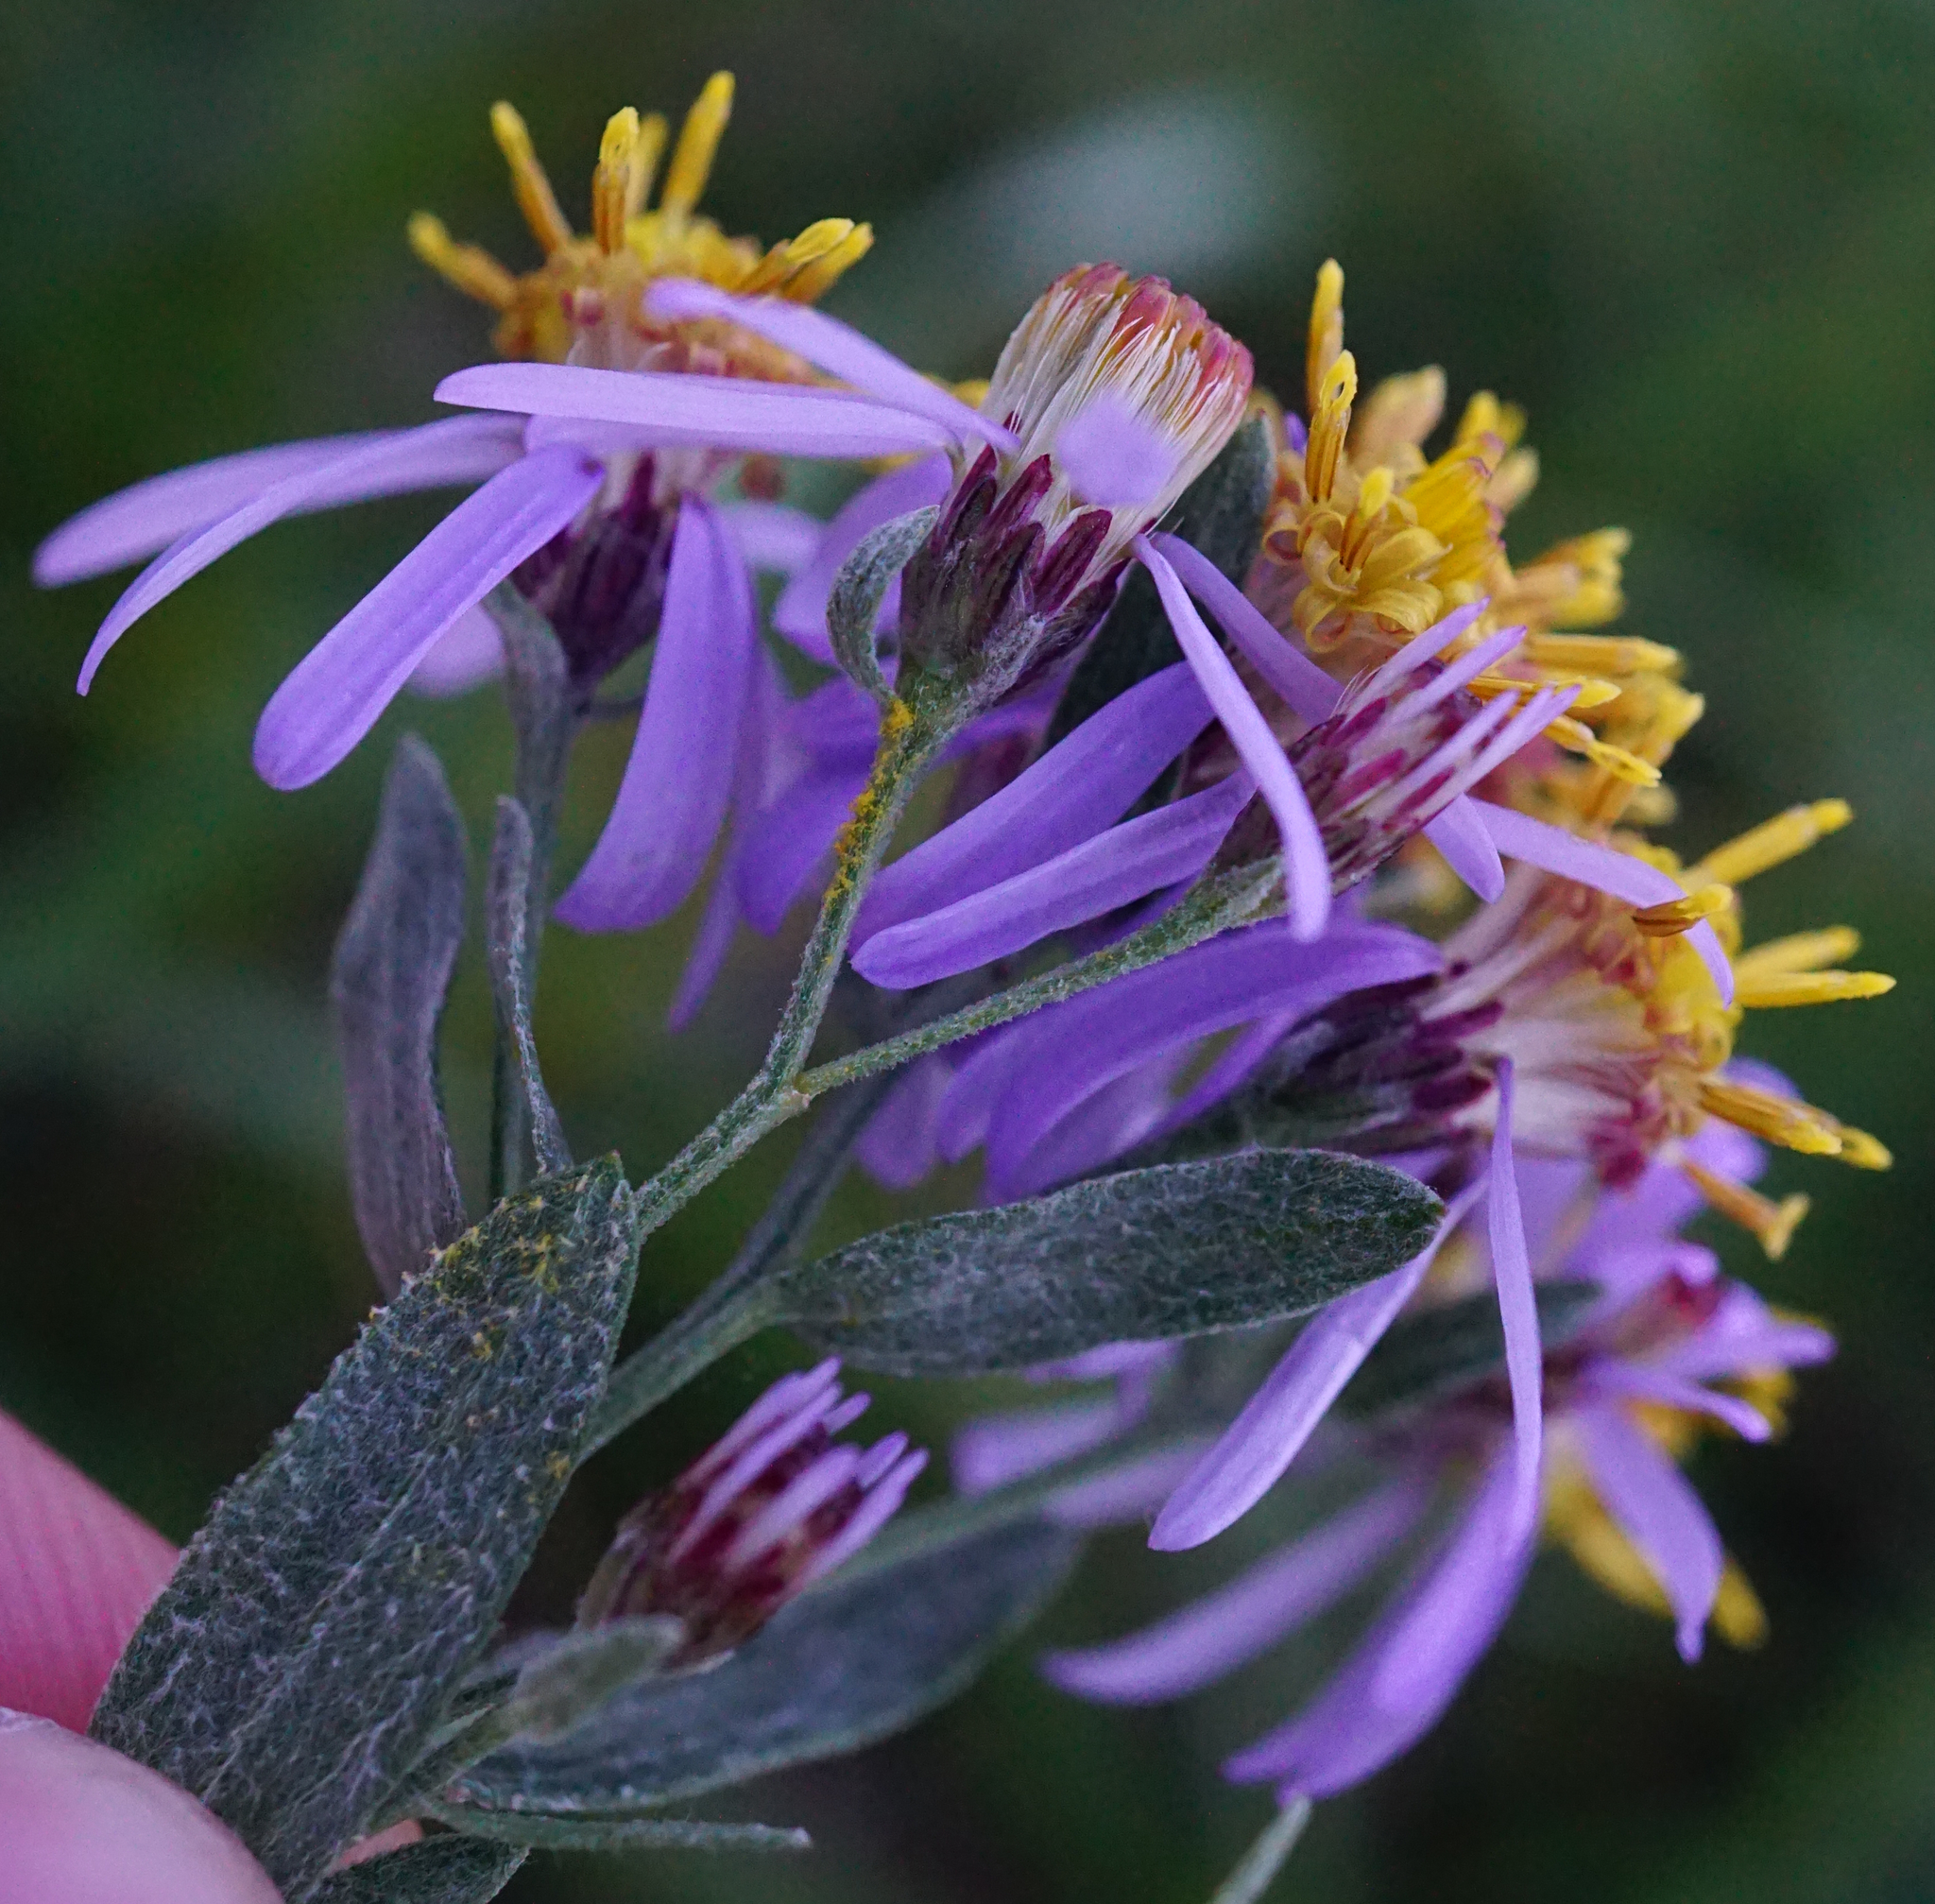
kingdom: Plantae
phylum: Tracheophyta
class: Magnoliopsida
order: Asterales
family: Asteraceae
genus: Galatella
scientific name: Galatella cana
